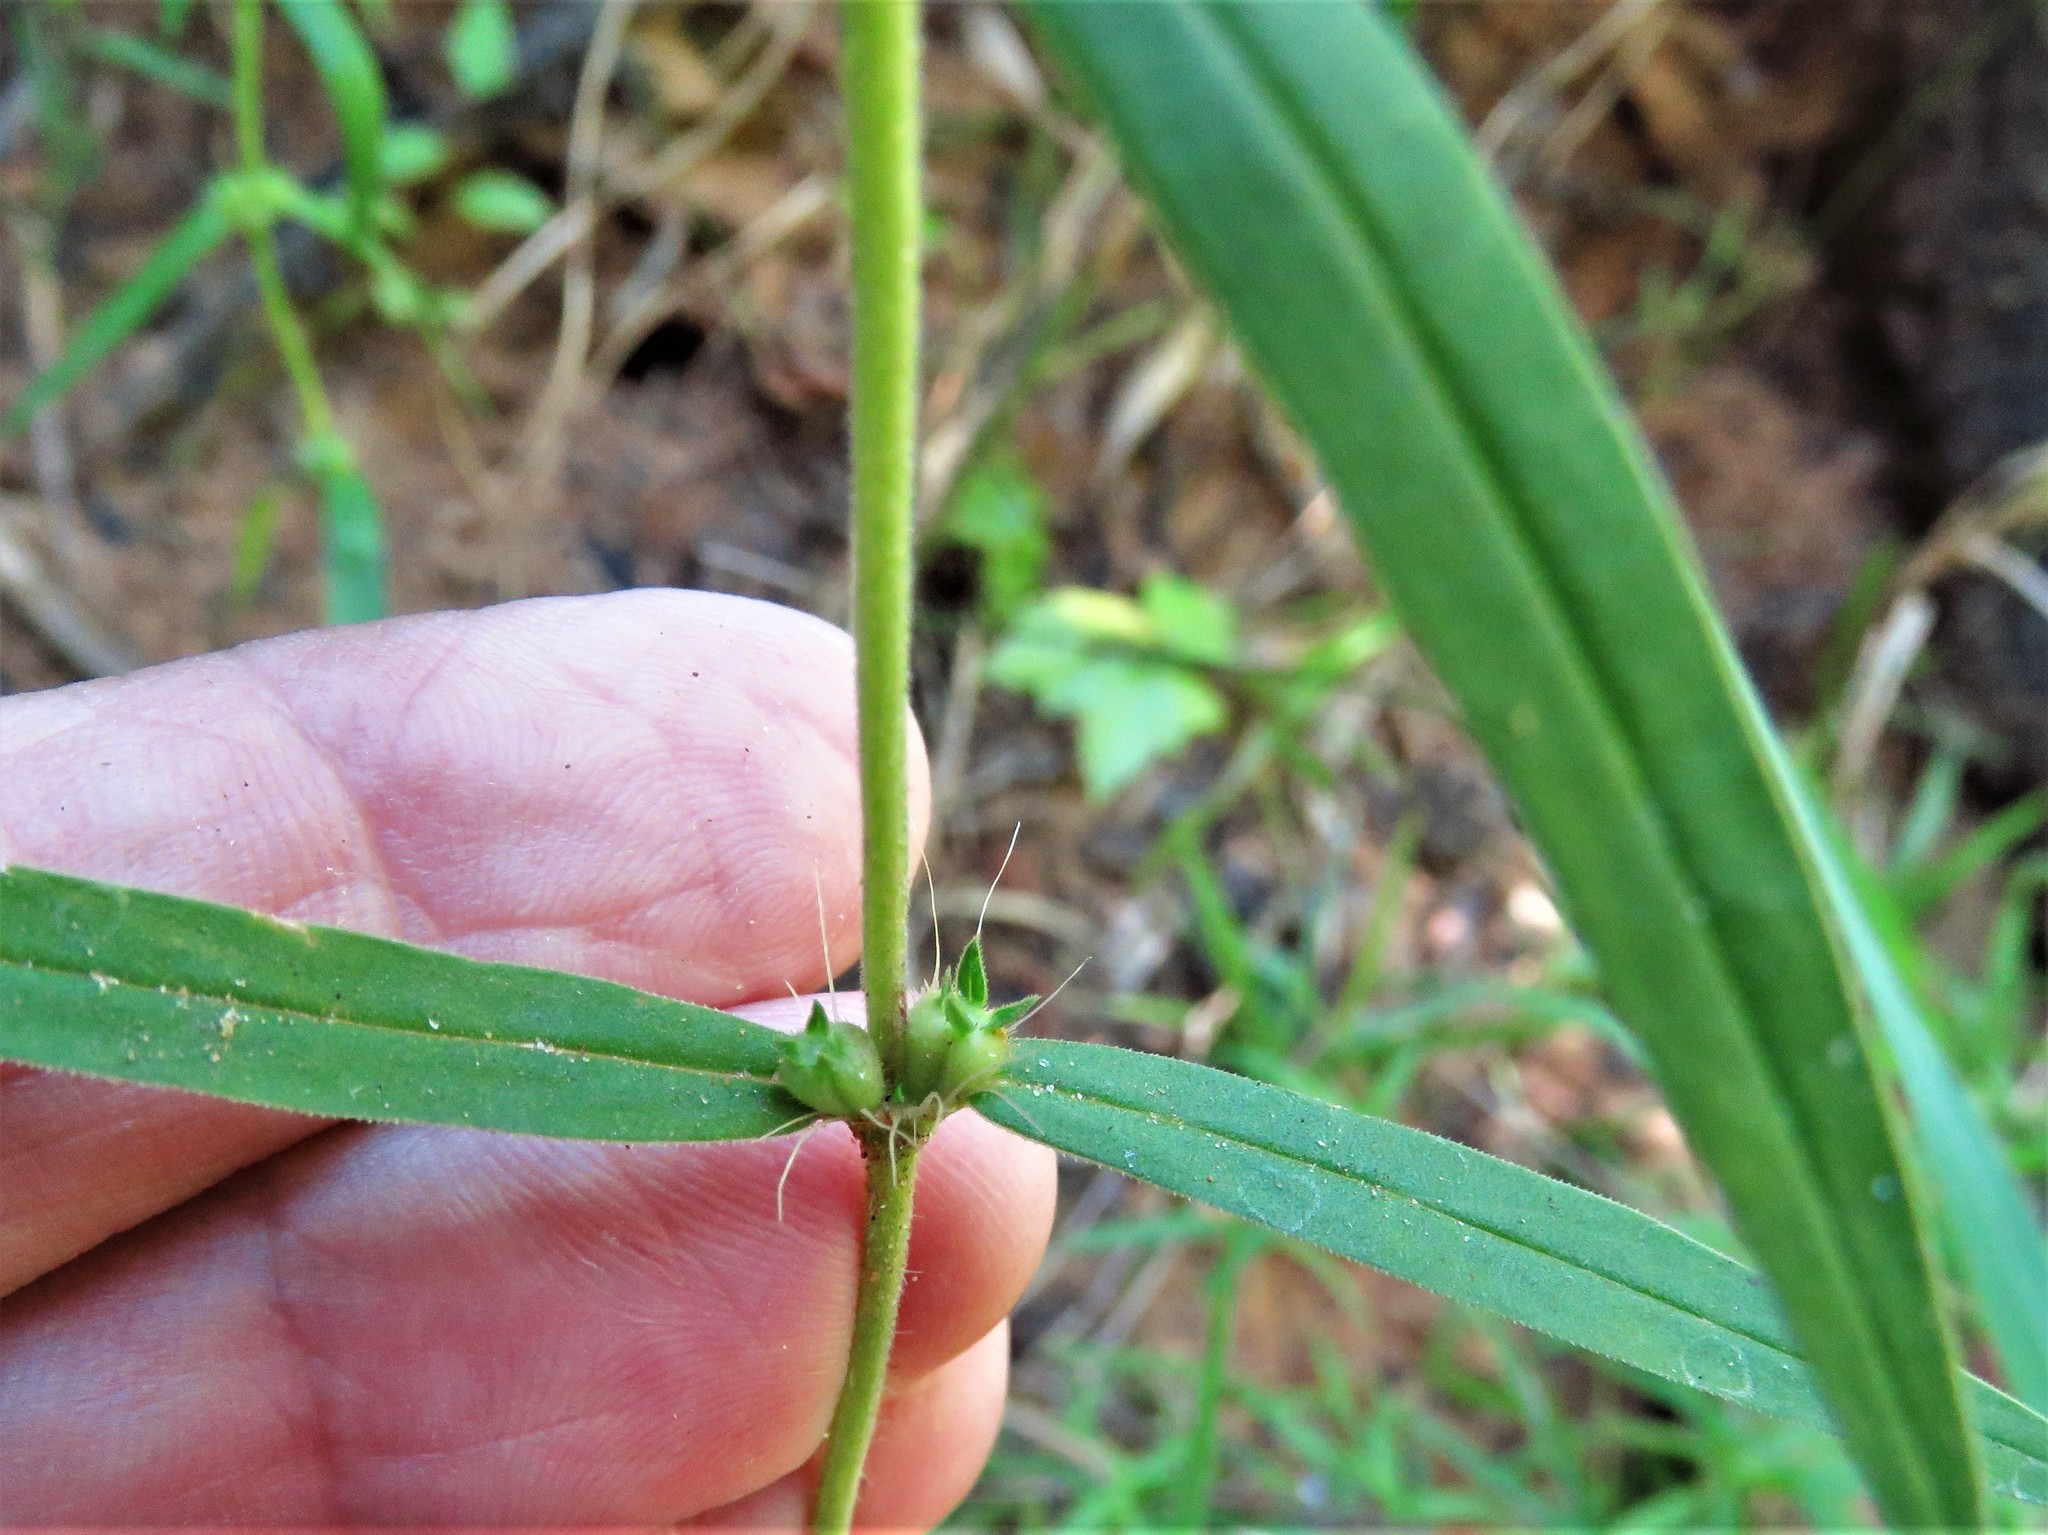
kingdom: Plantae
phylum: Tracheophyta
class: Magnoliopsida
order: Gentianales
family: Rubiaceae
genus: Hexasepalum
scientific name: Hexasepalum teres
